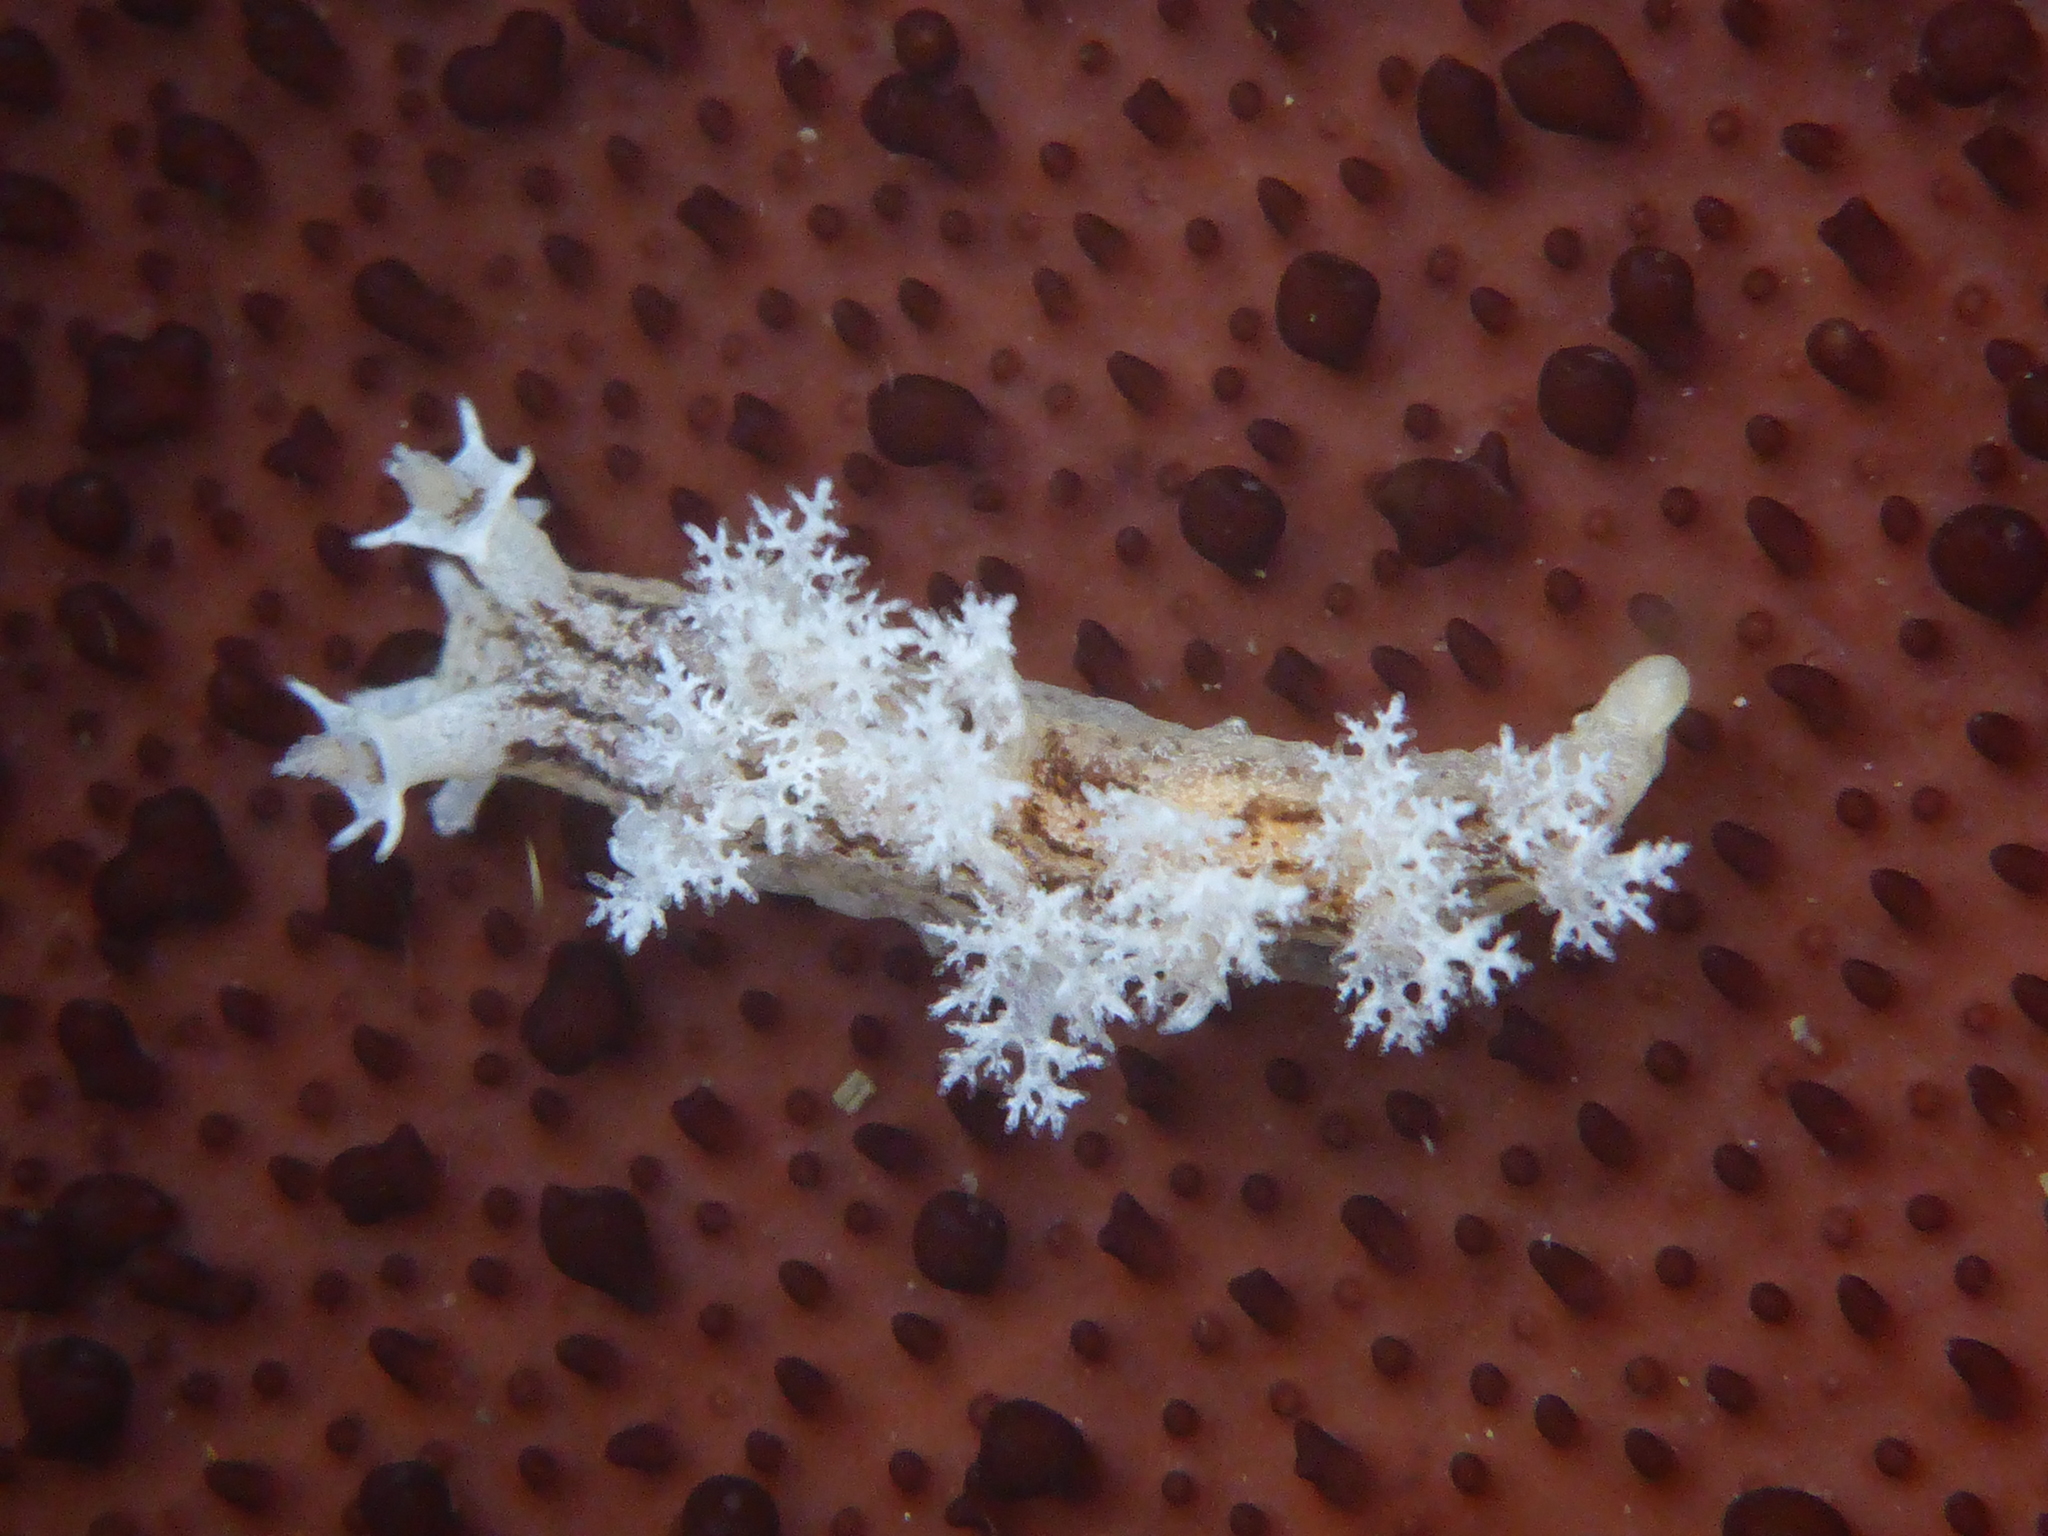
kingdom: Animalia
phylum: Mollusca
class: Gastropoda
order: Nudibranchia
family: Dendronotidae
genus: Dendronotus
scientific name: Dendronotus subramosus
